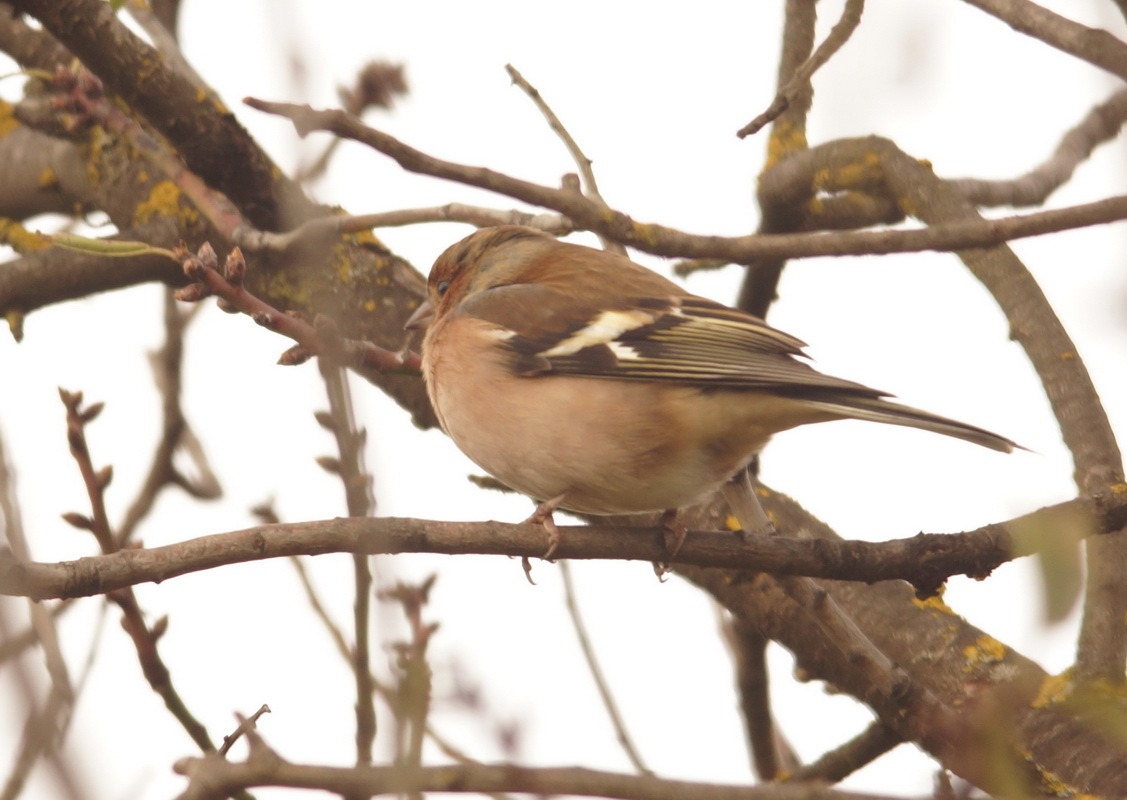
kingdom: Animalia
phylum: Chordata
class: Aves
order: Passeriformes
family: Fringillidae
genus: Fringilla
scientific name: Fringilla coelebs
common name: Common chaffinch
